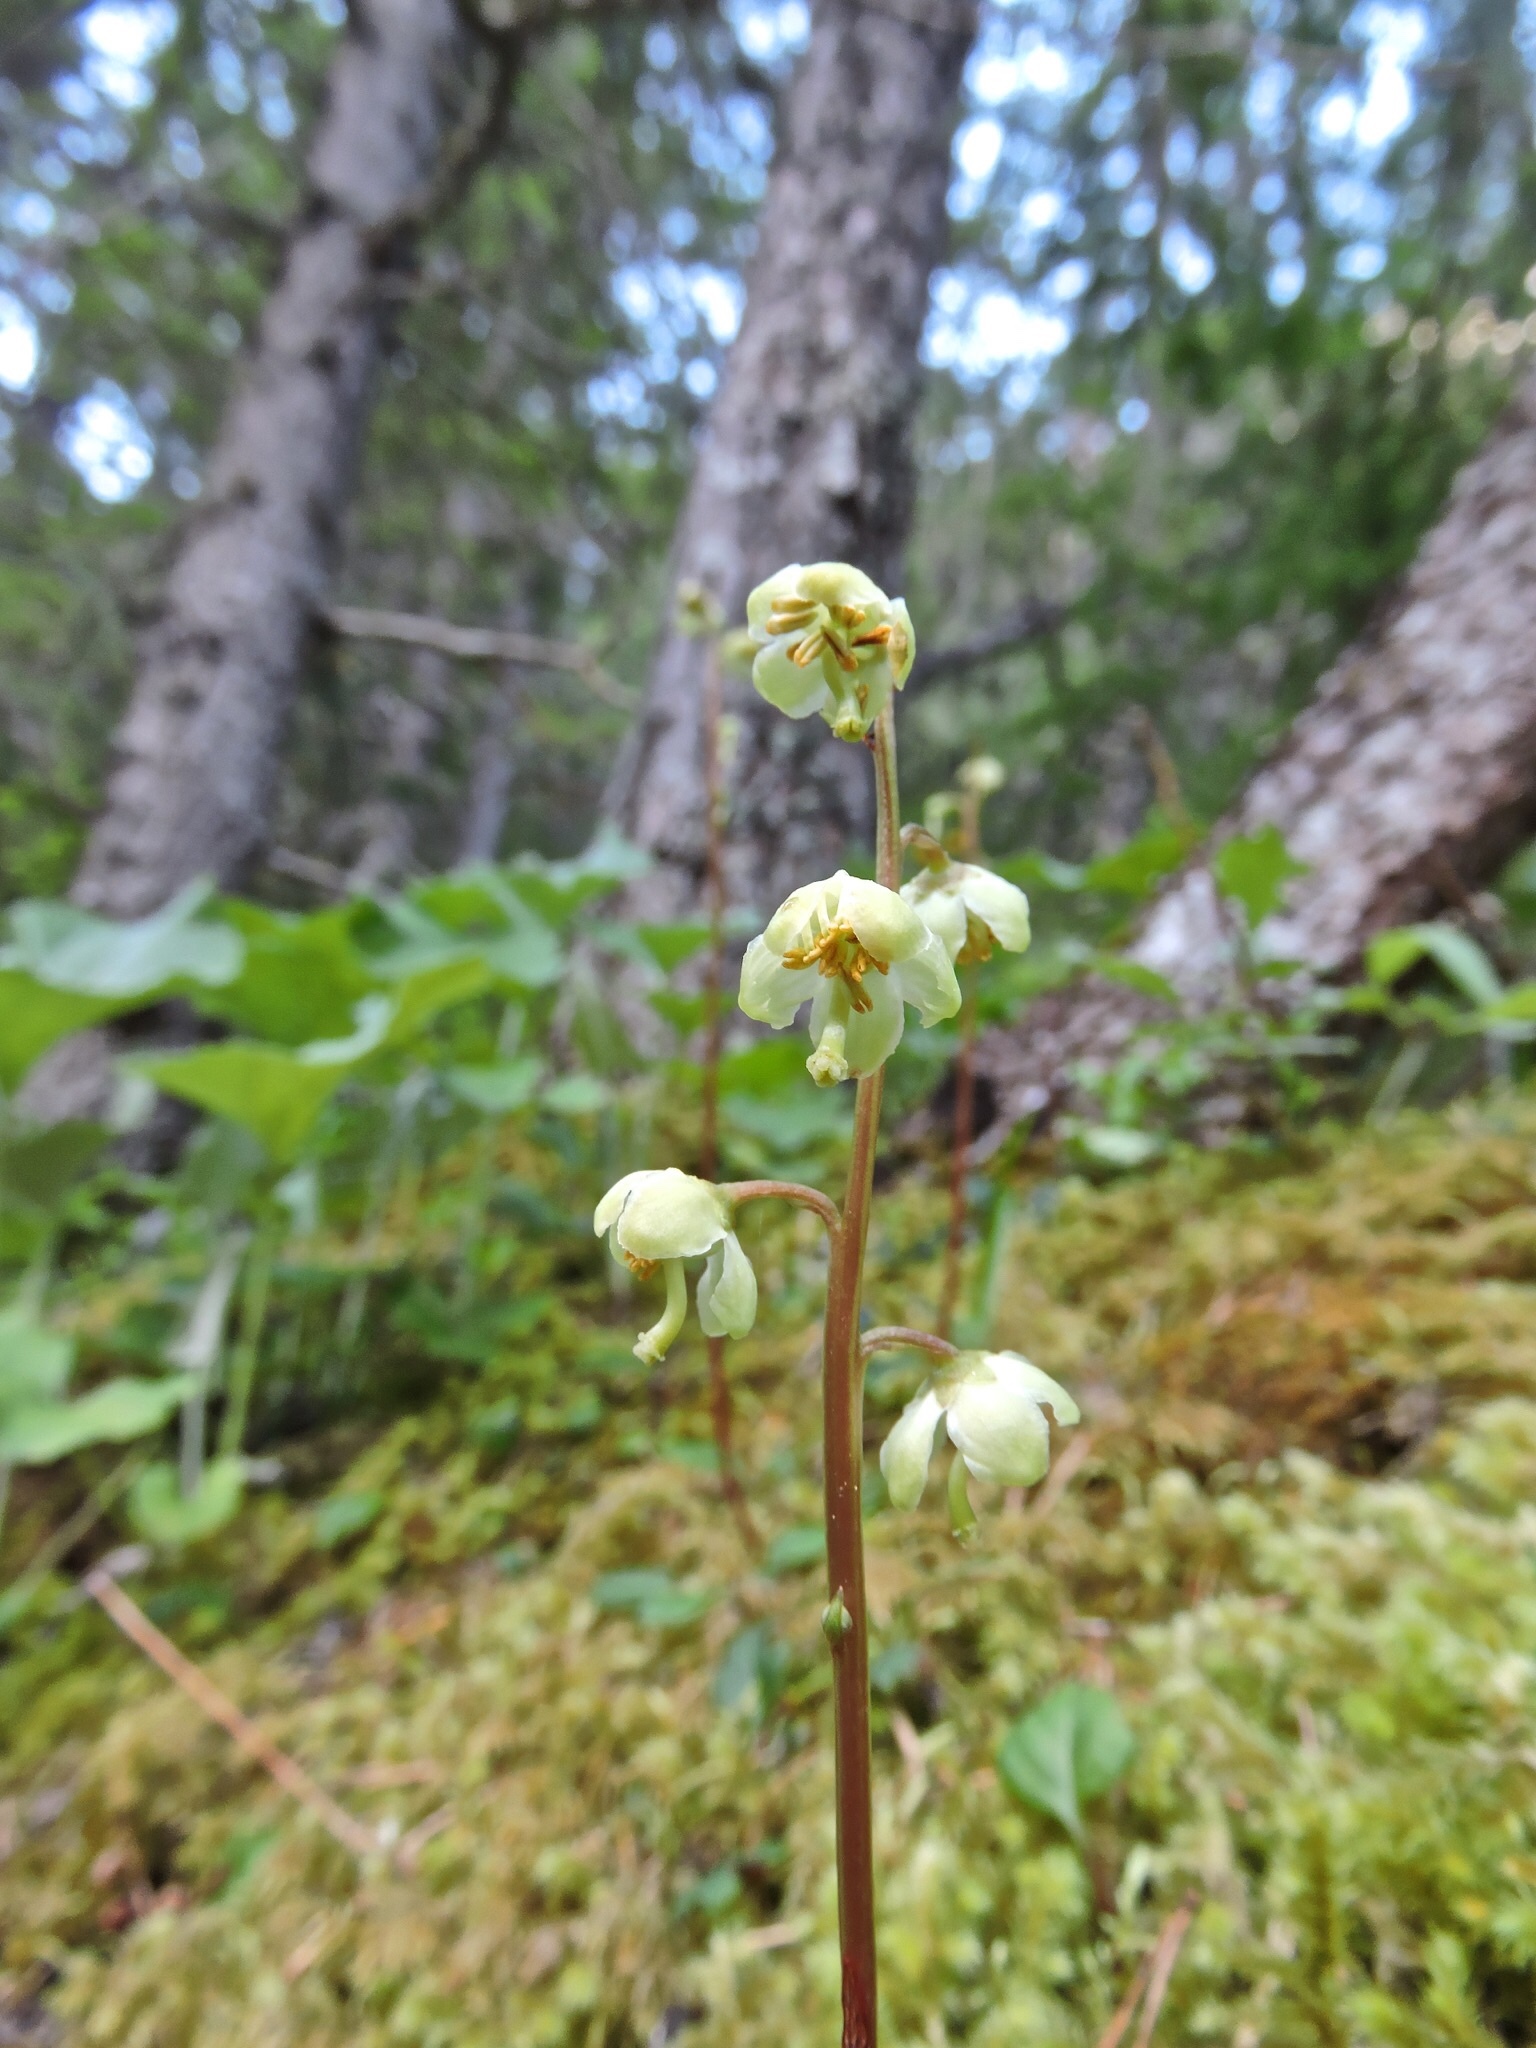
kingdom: Plantae
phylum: Tracheophyta
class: Magnoliopsida
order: Ericales
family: Ericaceae
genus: Pyrola
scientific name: Pyrola chlorantha
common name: Green wintergreen
